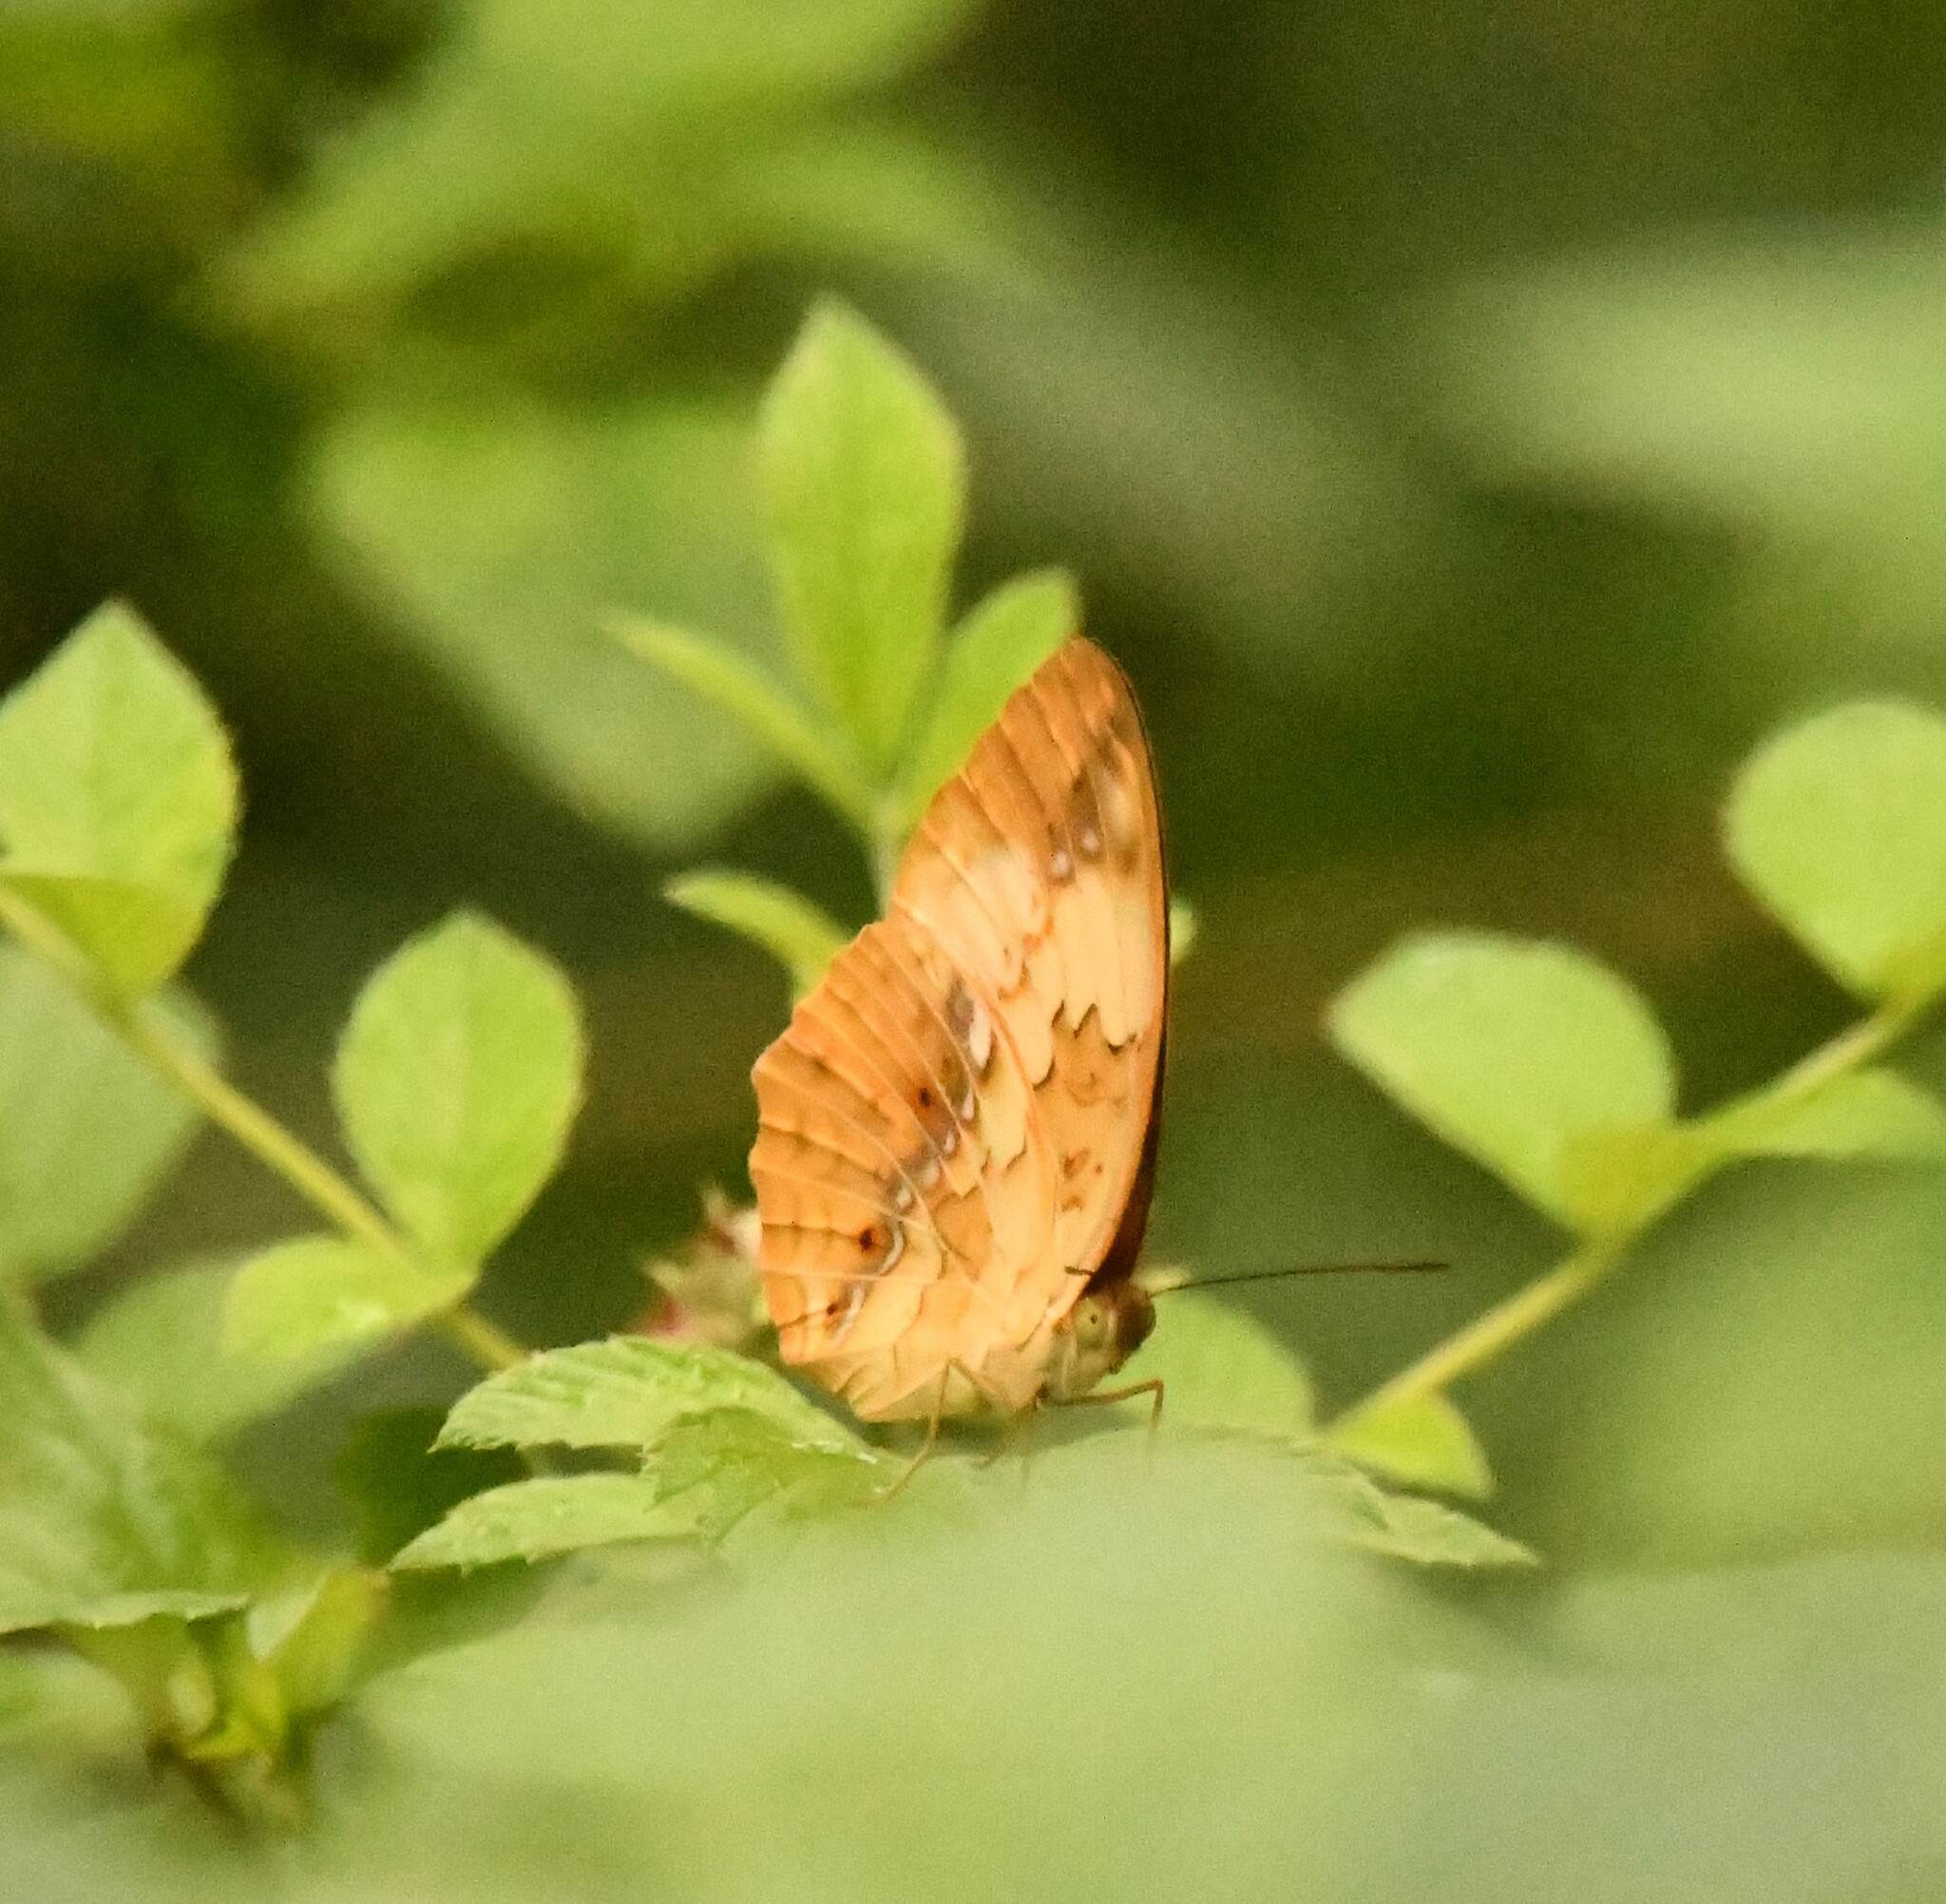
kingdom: Animalia
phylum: Arthropoda
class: Insecta
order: Lepidoptera
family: Nymphalidae
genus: Cupha
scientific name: Cupha erymanthis
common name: Rustic
